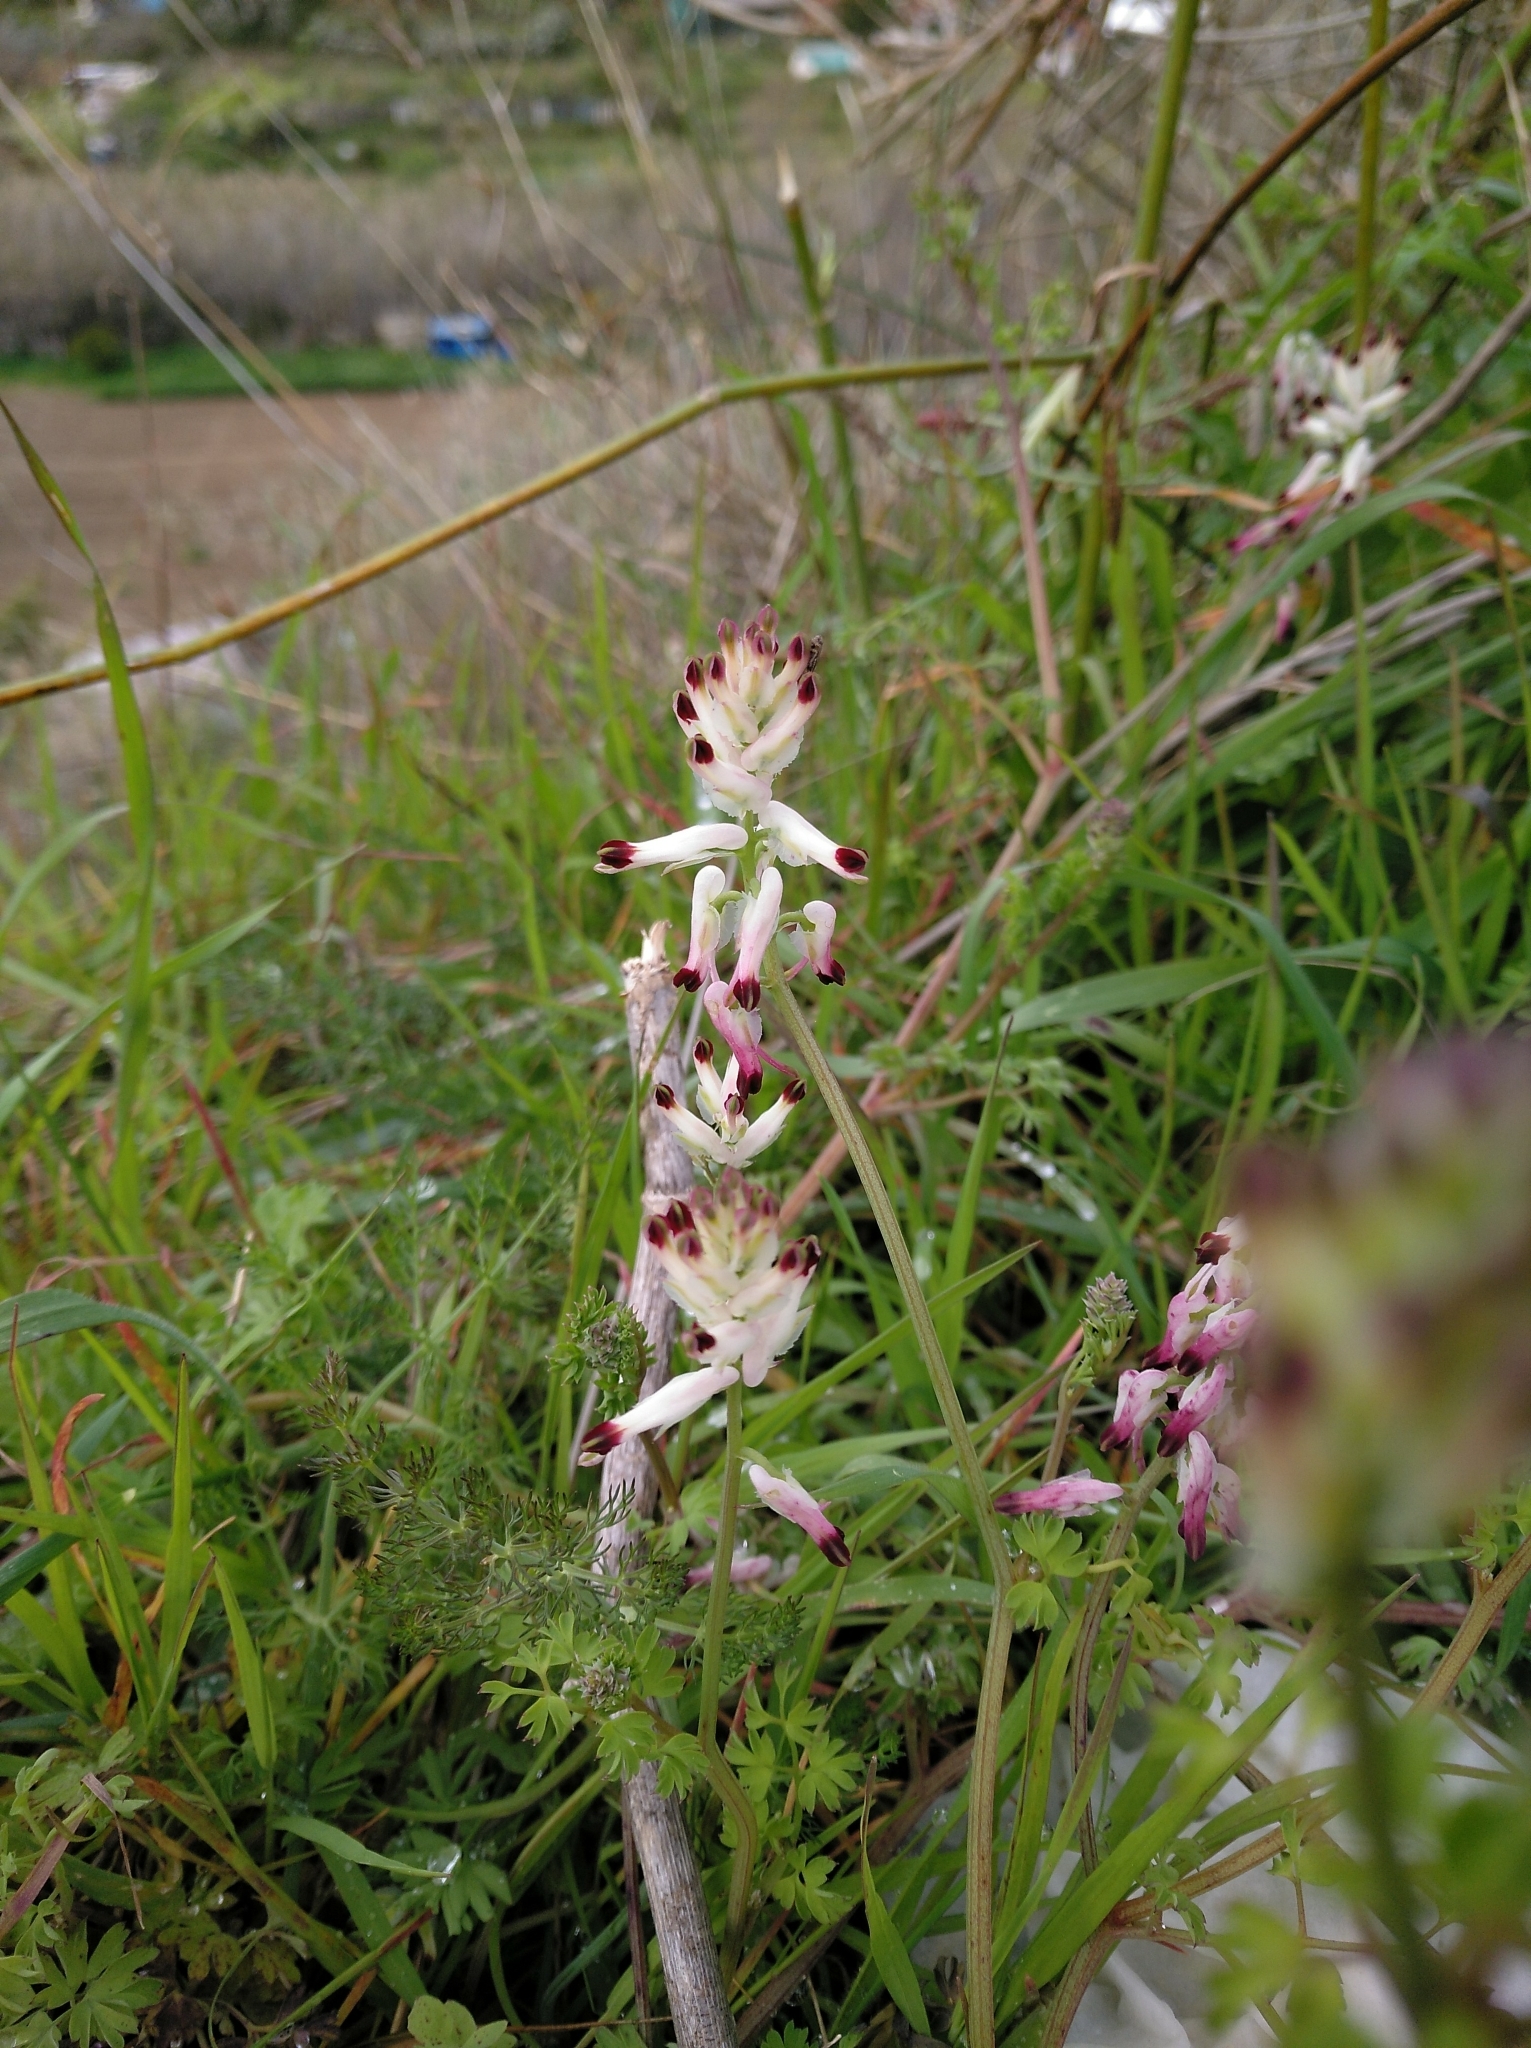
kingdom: Plantae
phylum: Tracheophyta
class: Magnoliopsida
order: Ranunculales
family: Papaveraceae
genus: Fumaria
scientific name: Fumaria capreolata
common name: White ramping-fumitory
